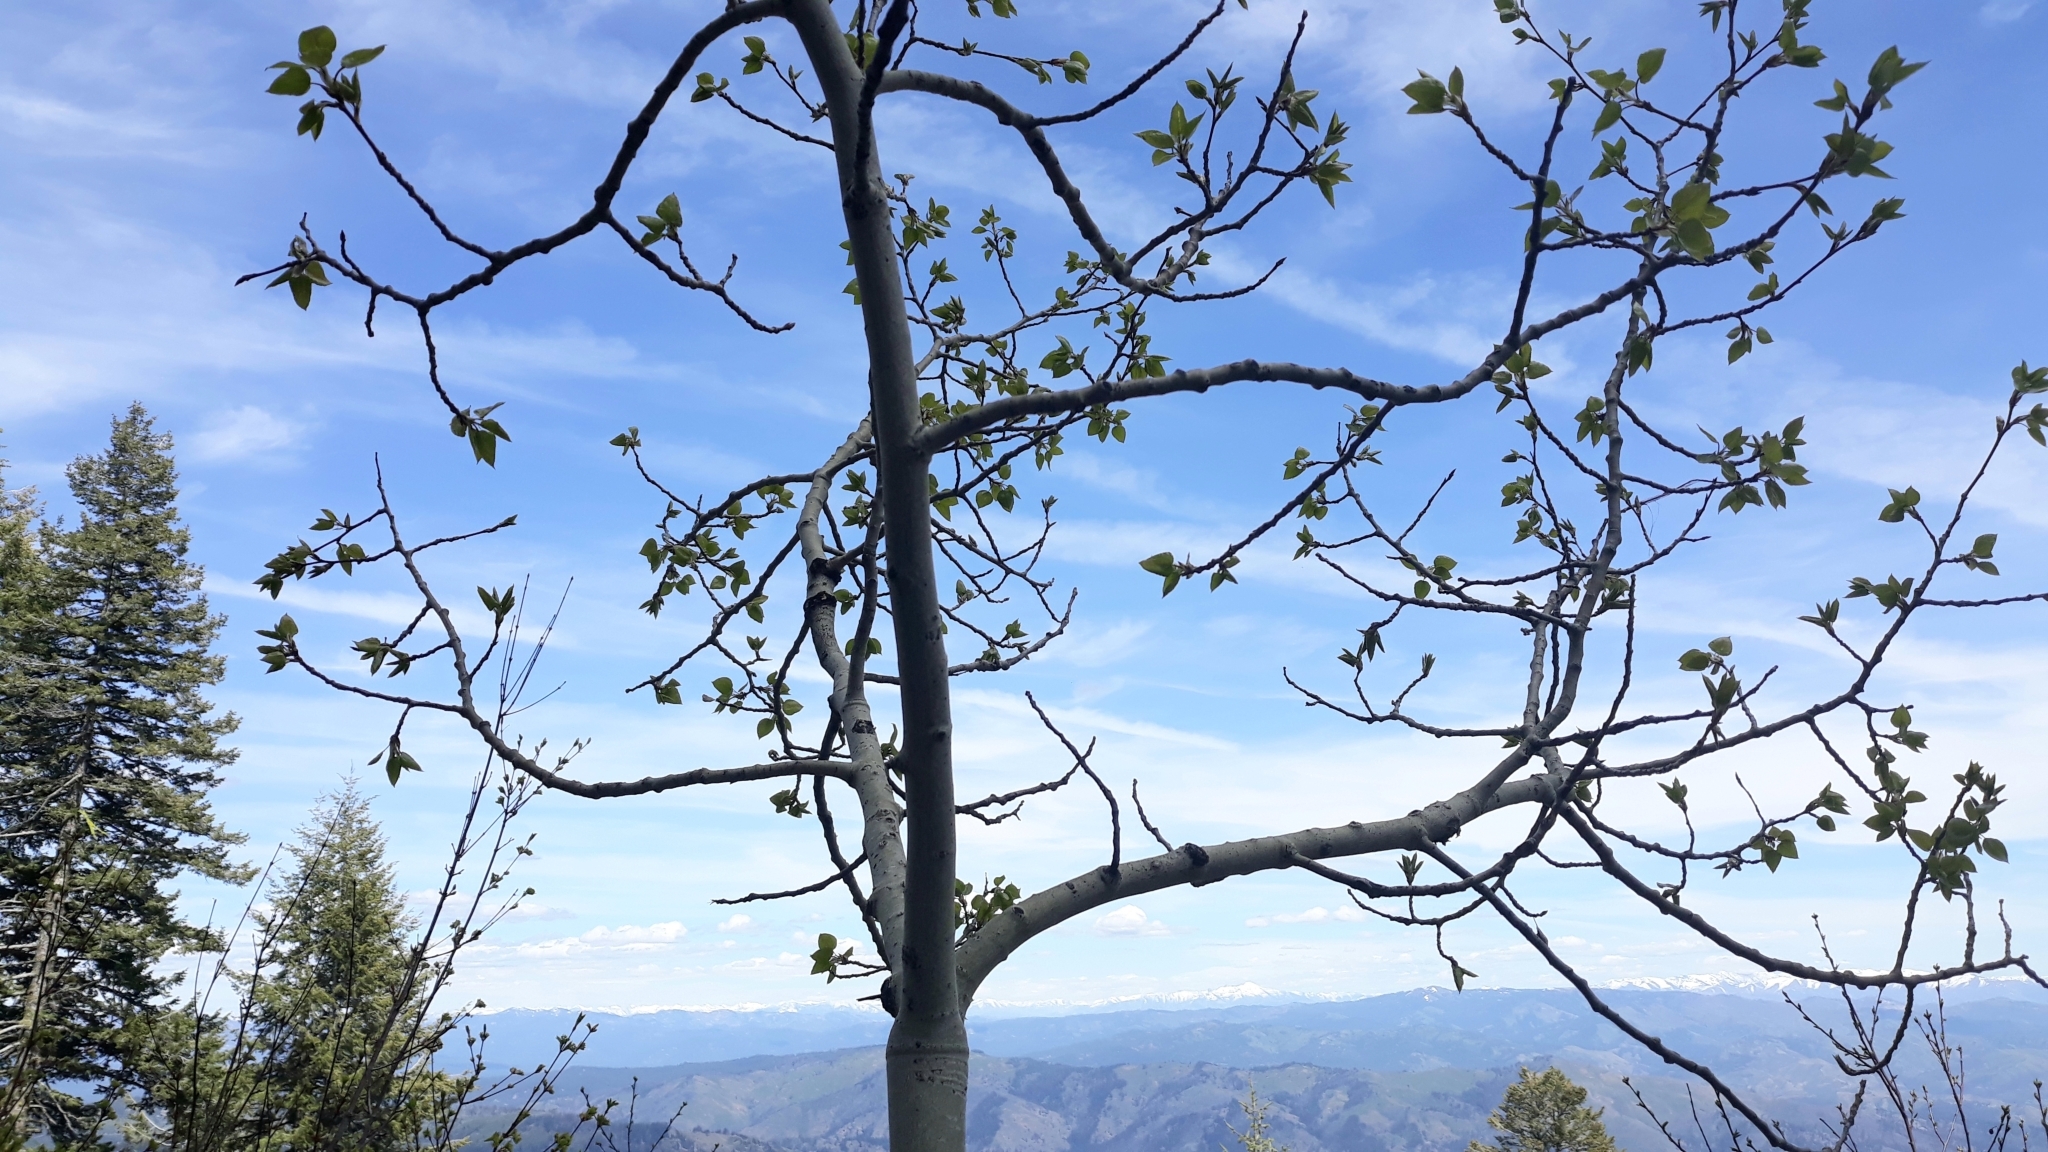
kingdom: Plantae
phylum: Tracheophyta
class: Magnoliopsida
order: Malpighiales
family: Salicaceae
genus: Populus
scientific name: Populus tremuloides
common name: Quaking aspen
